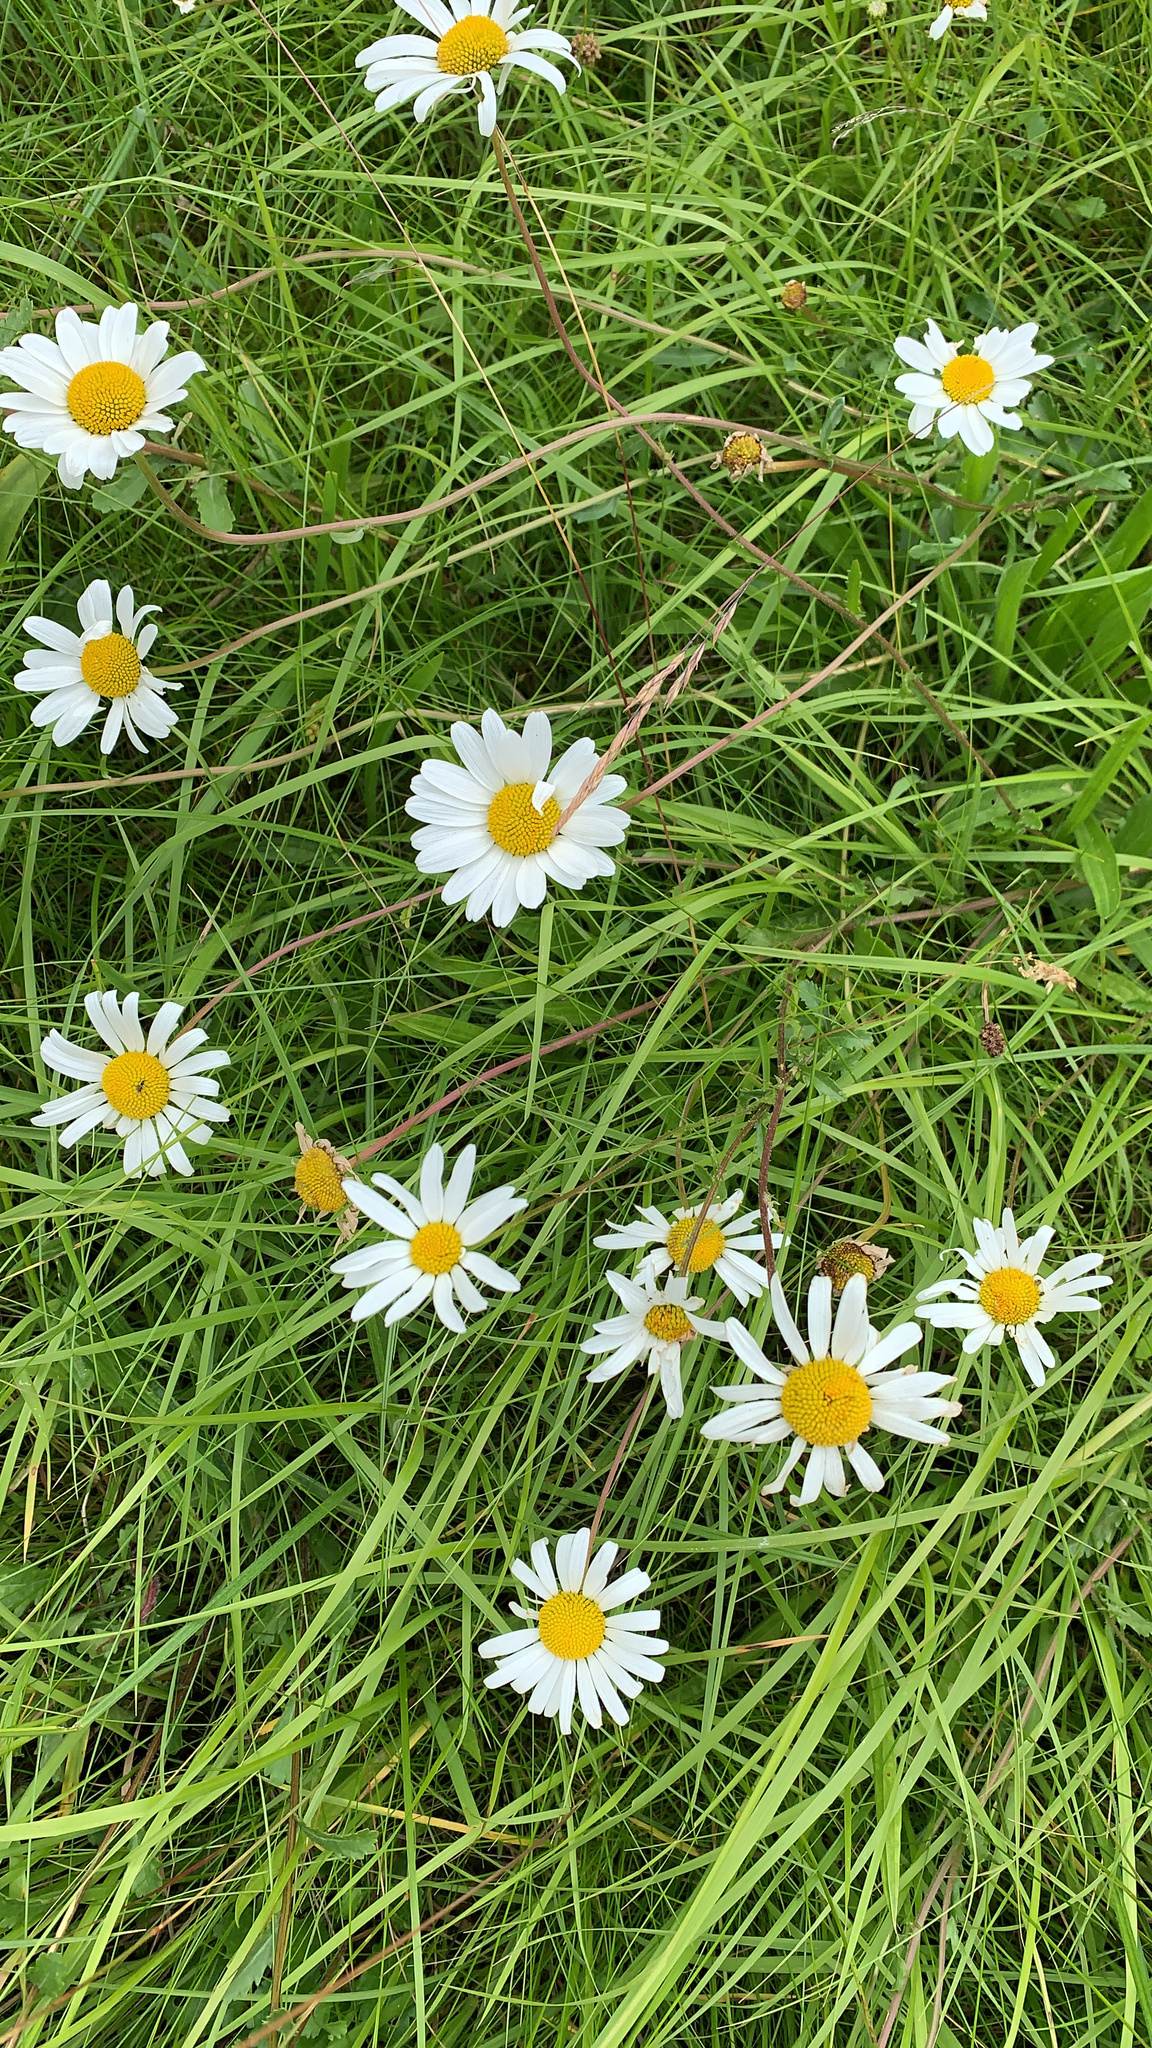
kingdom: Plantae
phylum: Tracheophyta
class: Magnoliopsida
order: Asterales
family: Asteraceae
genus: Leucanthemum
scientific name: Leucanthemum vulgare
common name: Oxeye daisy
